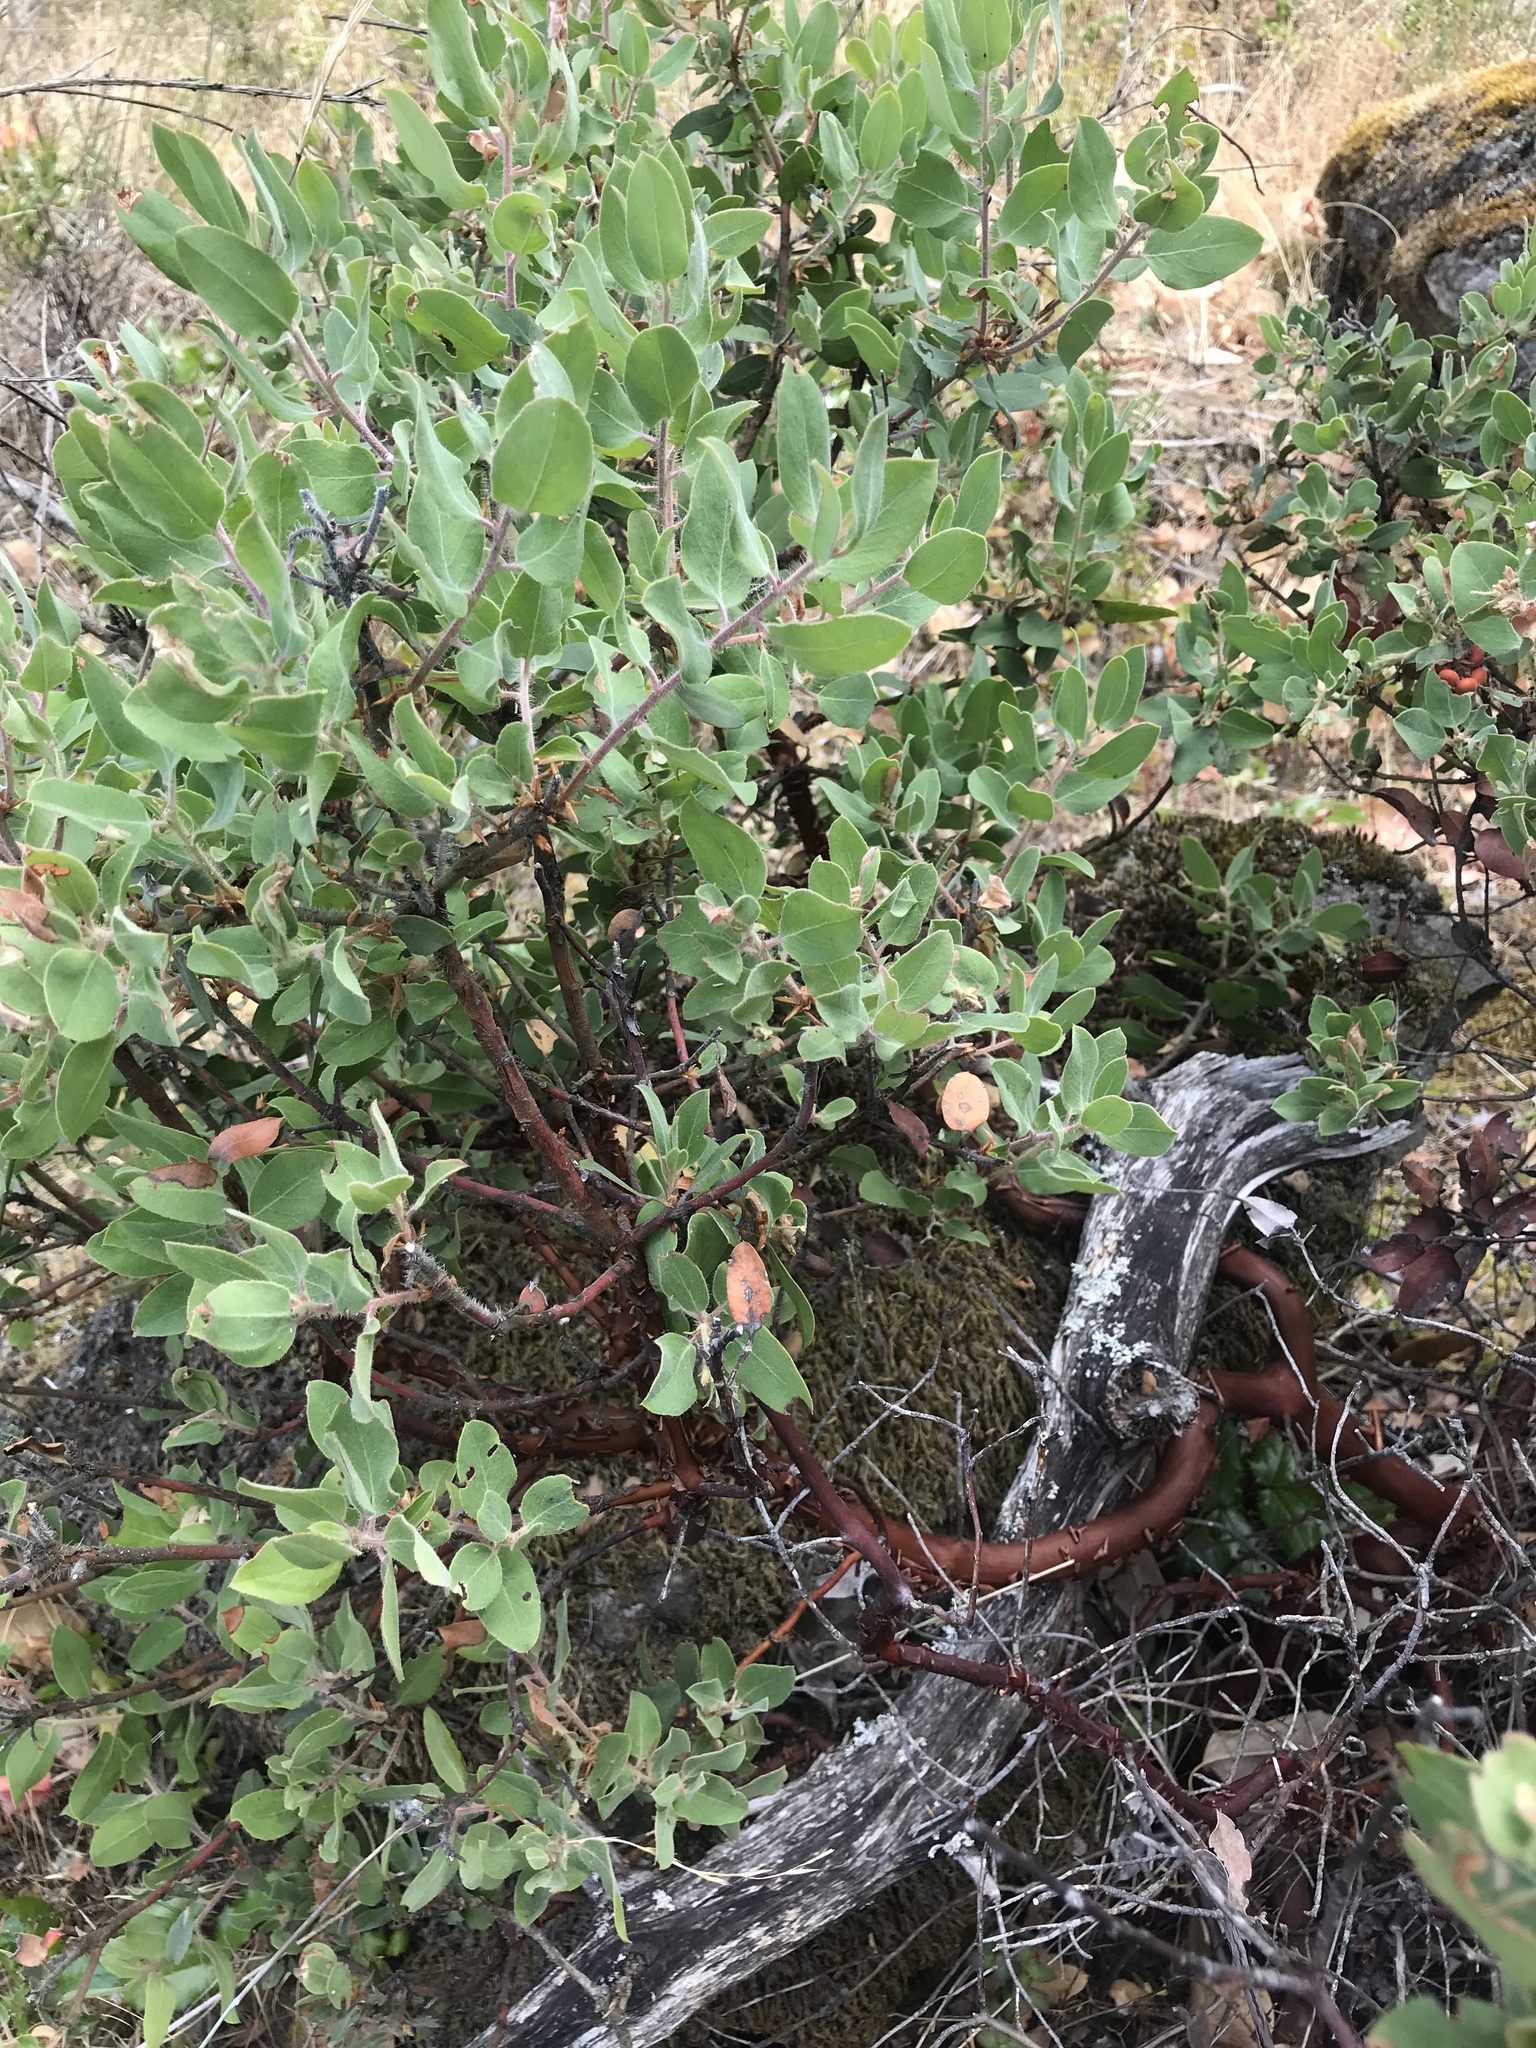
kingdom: Plantae
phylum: Tracheophyta
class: Magnoliopsida
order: Ericales
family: Ericaceae
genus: Arctostaphylos
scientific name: Arctostaphylos columbiana
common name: Bristly bearberry
